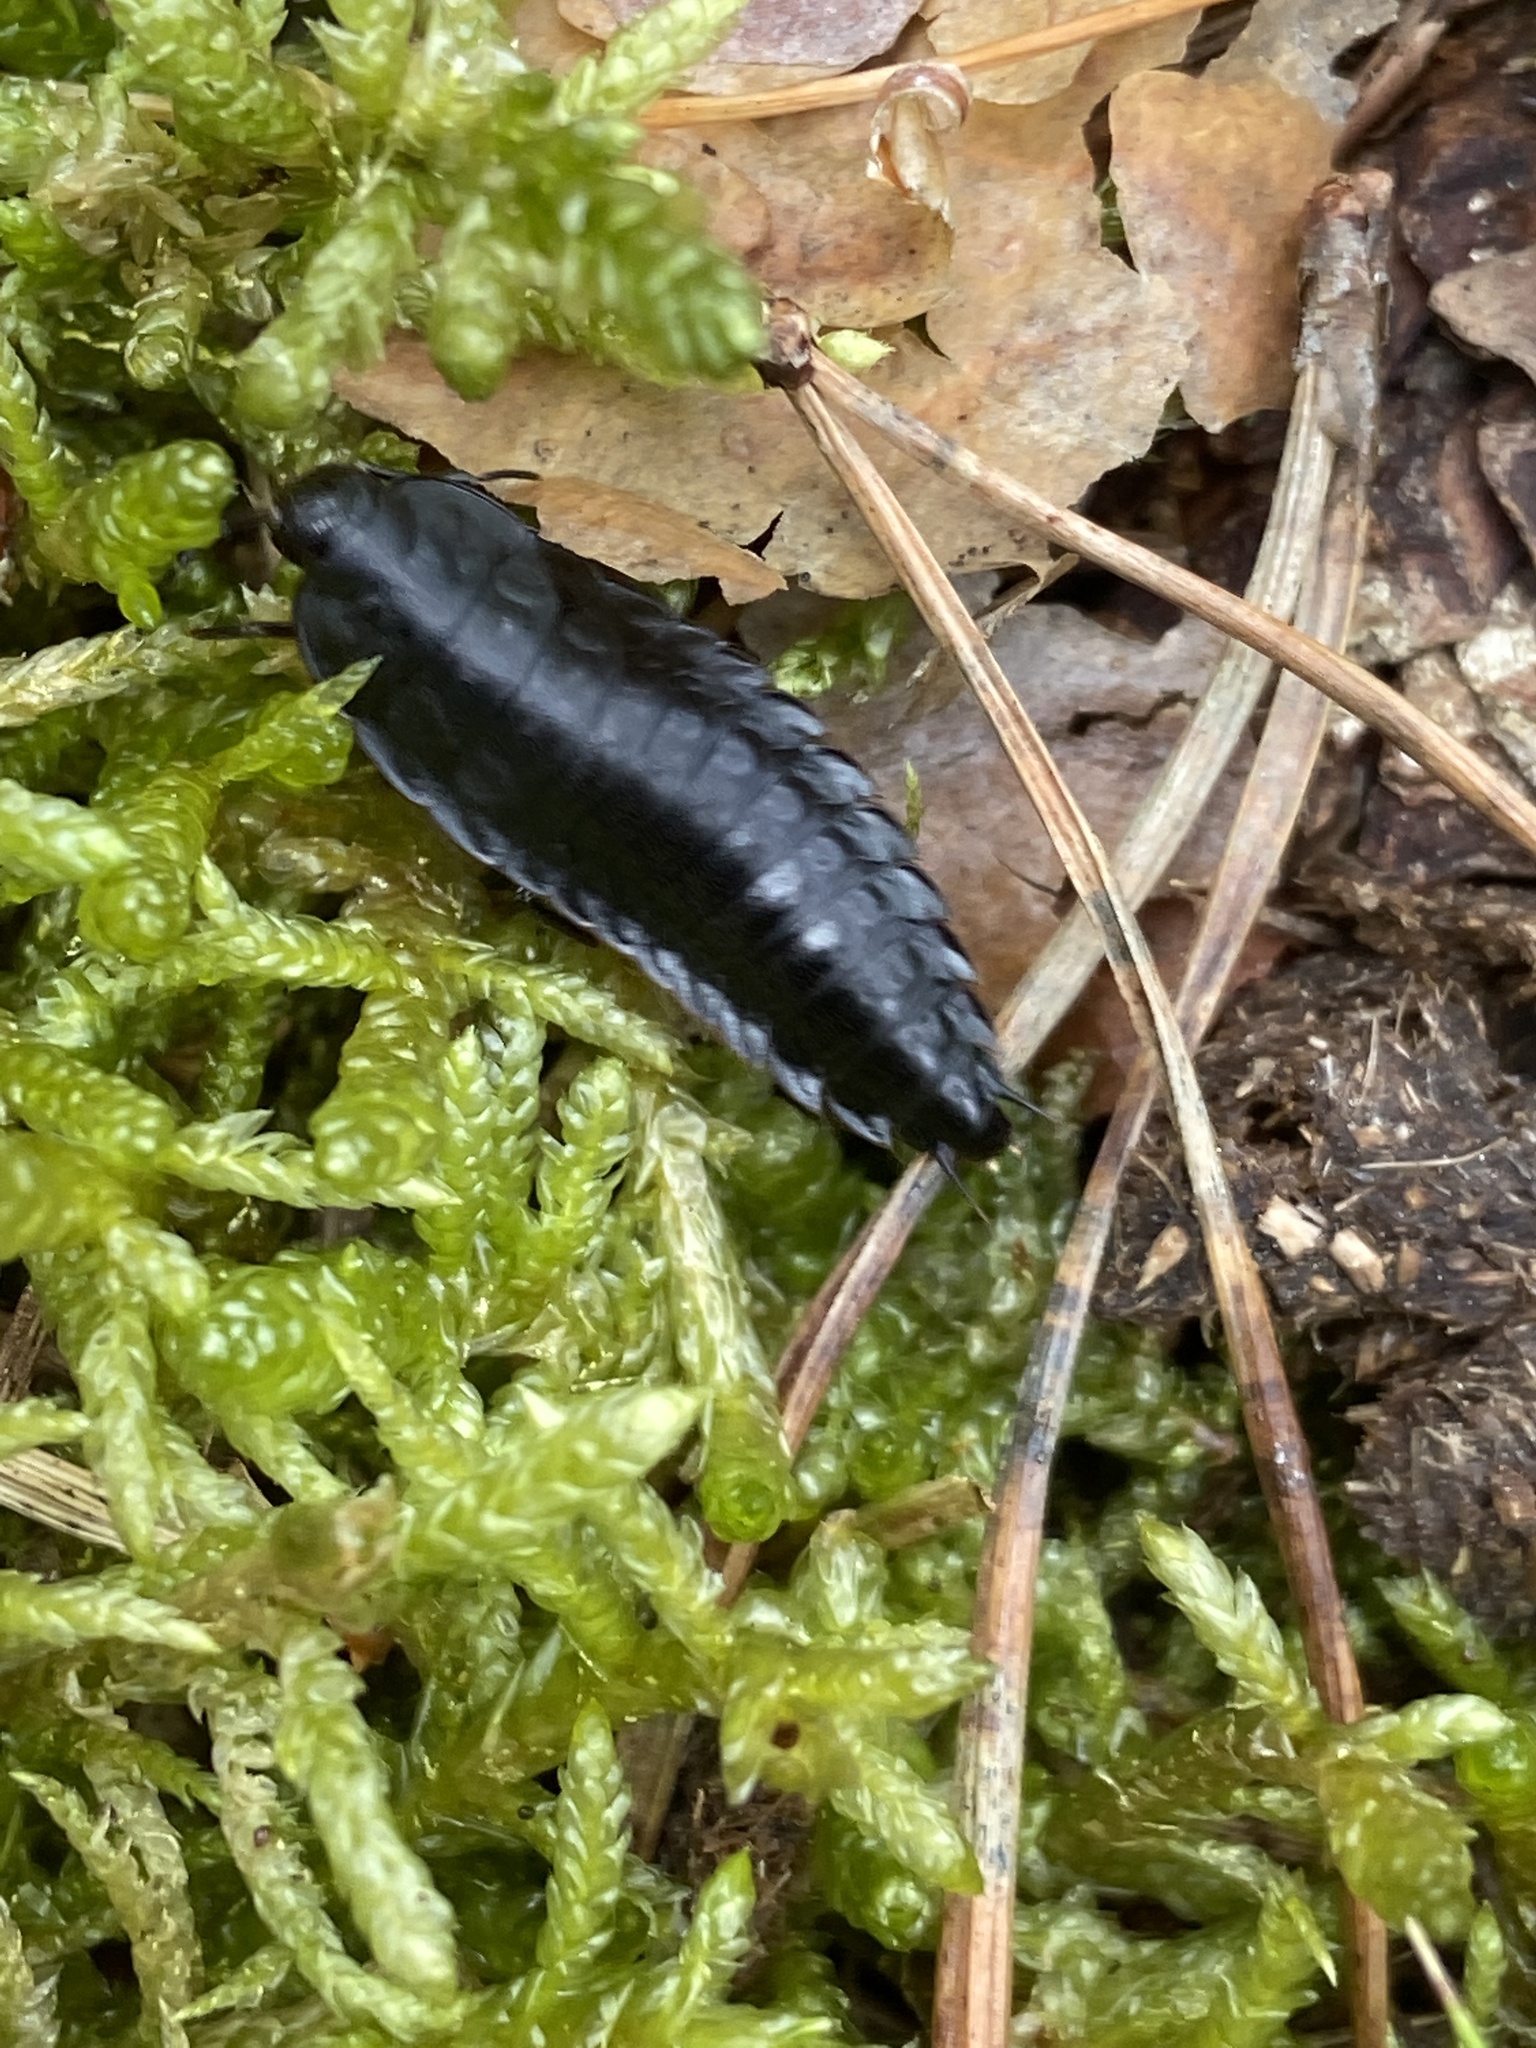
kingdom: Animalia
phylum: Arthropoda
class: Insecta
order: Coleoptera
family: Staphylinidae
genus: Silpha
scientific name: Silpha carinata
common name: Silphid beetle
